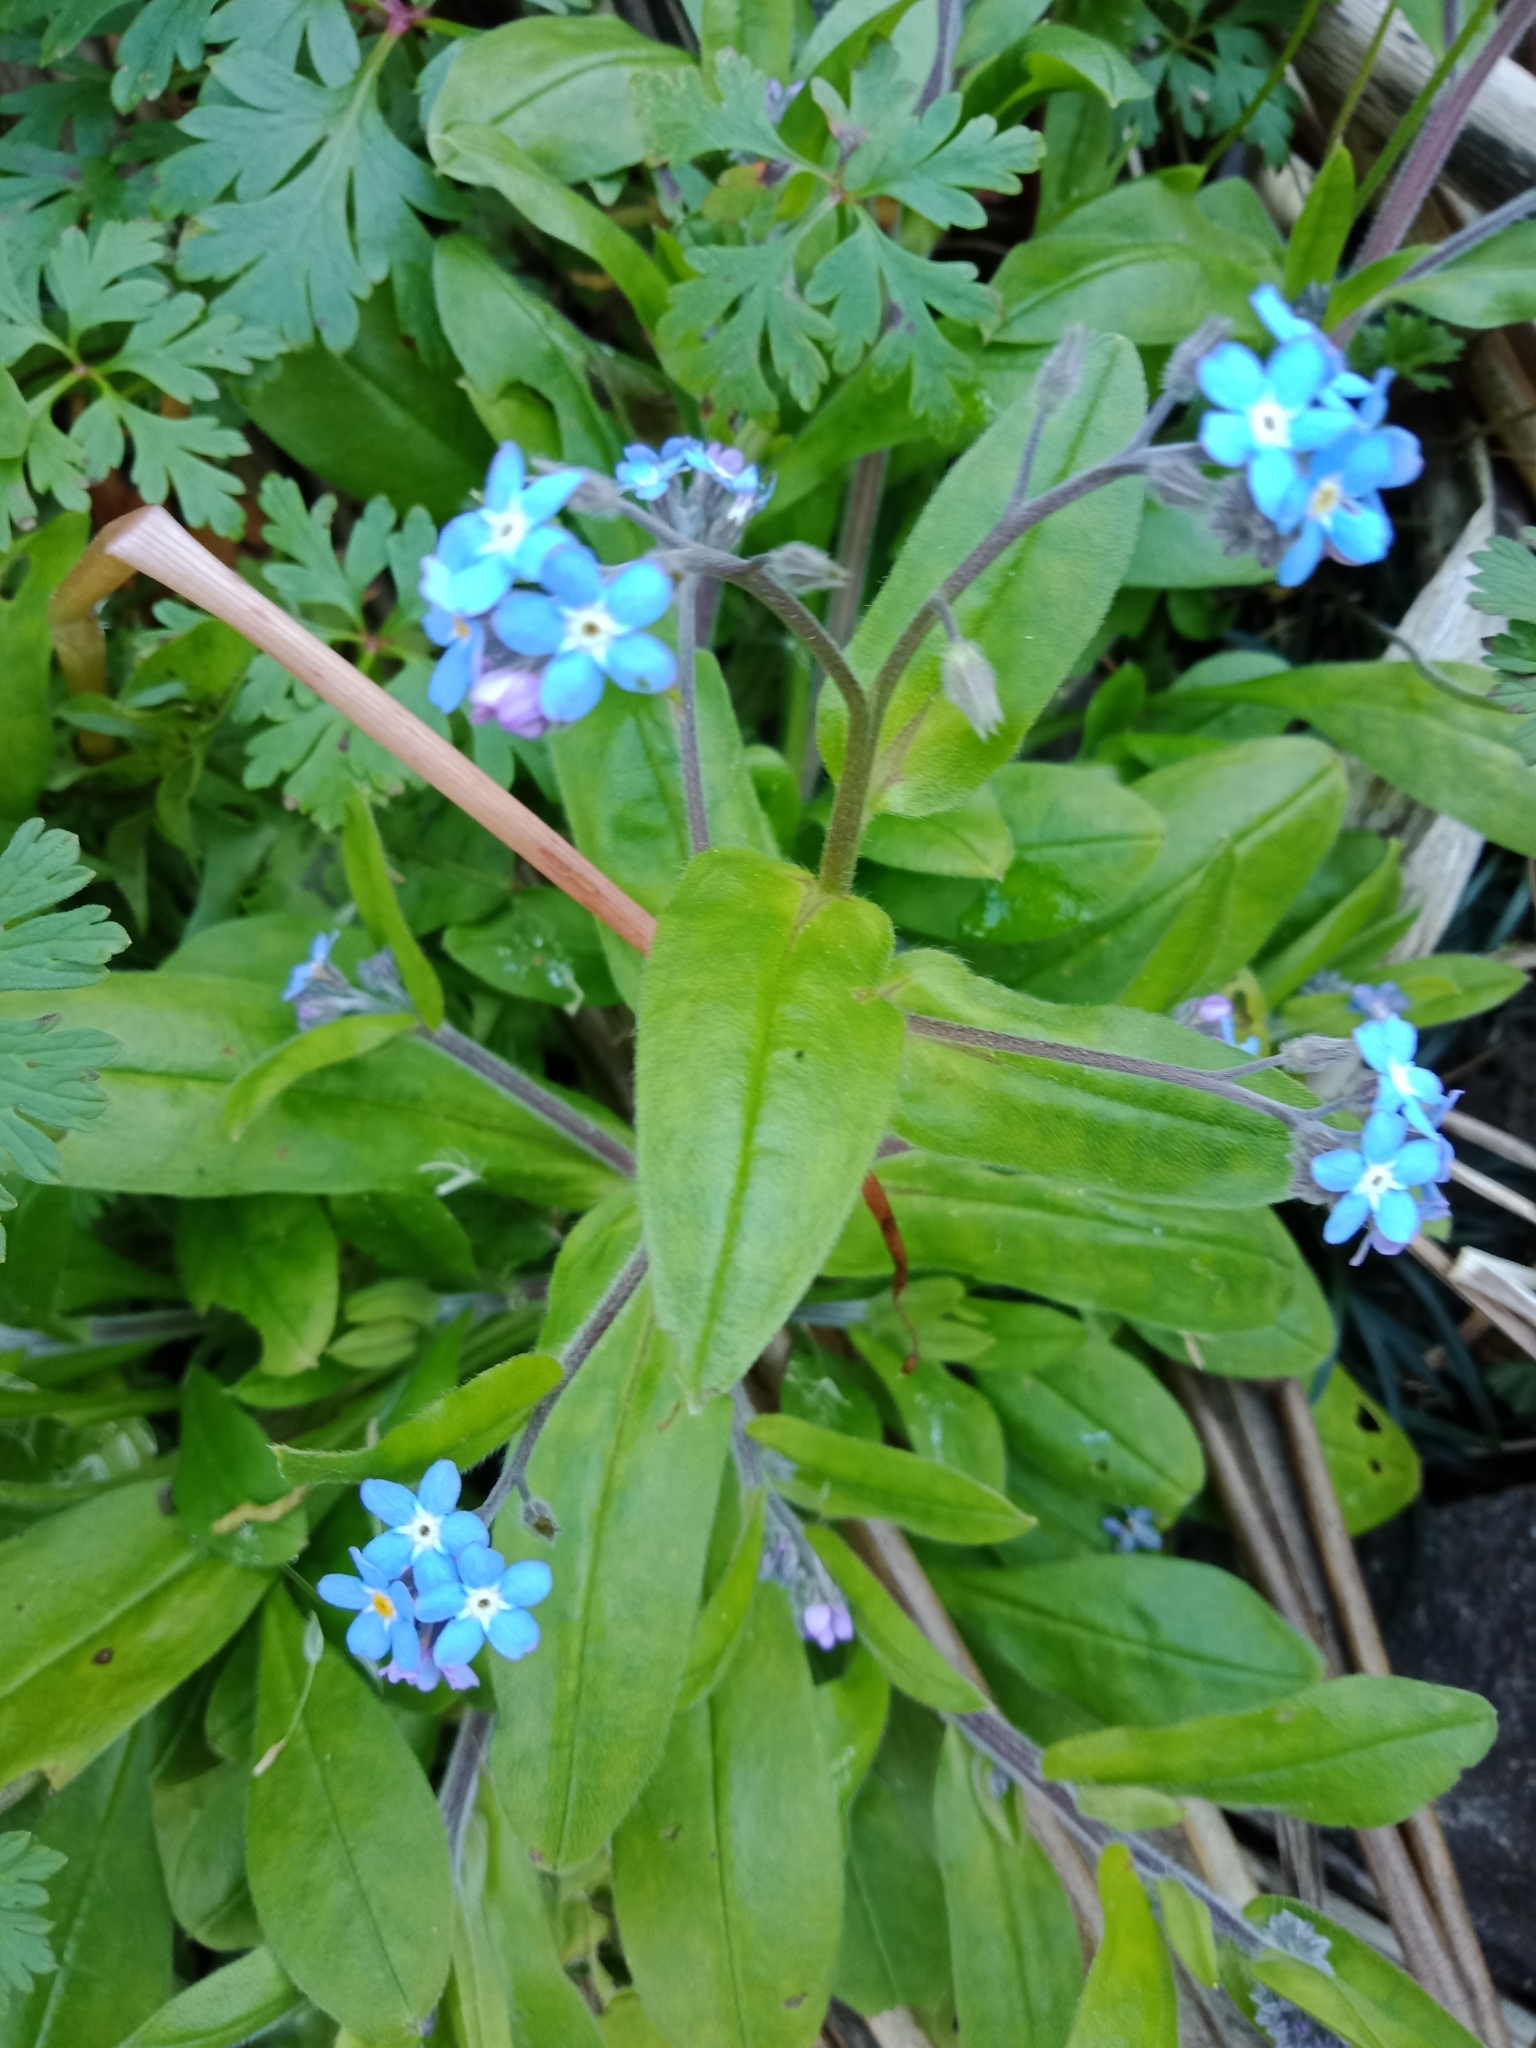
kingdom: Plantae
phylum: Tracheophyta
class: Magnoliopsida
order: Boraginales
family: Boraginaceae
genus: Myosotis
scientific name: Myosotis sylvatica
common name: Wood forget-me-not
